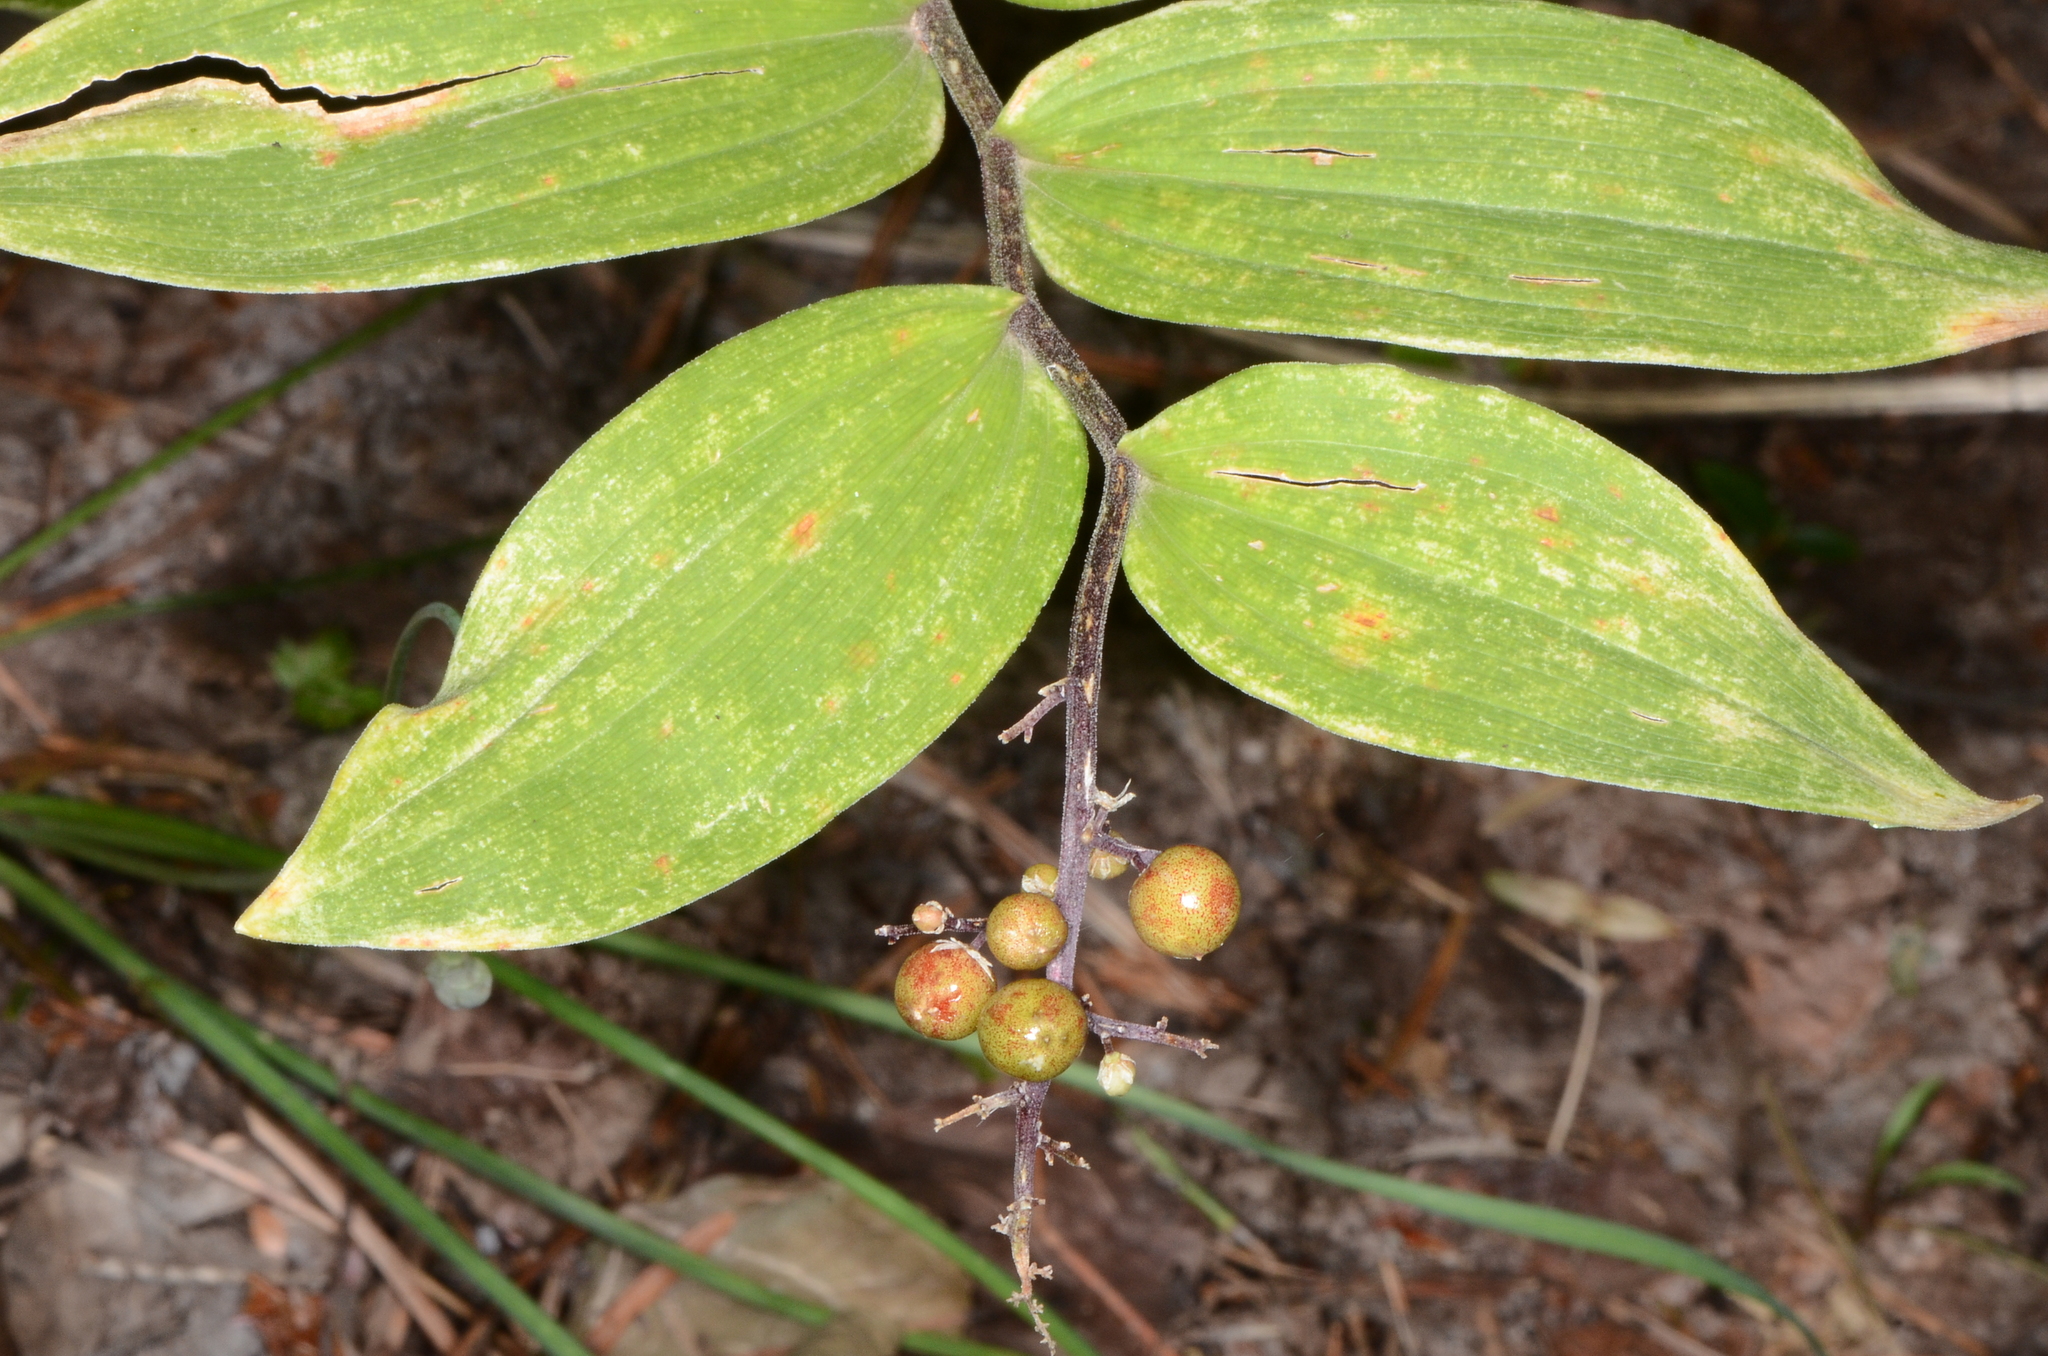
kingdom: Plantae
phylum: Tracheophyta
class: Liliopsida
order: Asparagales
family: Asparagaceae
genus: Maianthemum
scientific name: Maianthemum racemosum
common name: False spikenard
